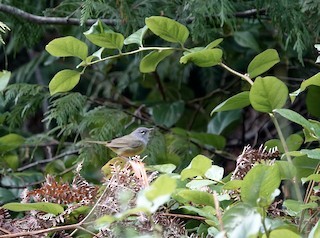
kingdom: Animalia
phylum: Chordata
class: Aves
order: Passeriformes
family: Parulidae
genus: Geothlypis
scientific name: Geothlypis tolmiei
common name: Macgillivray's warbler
